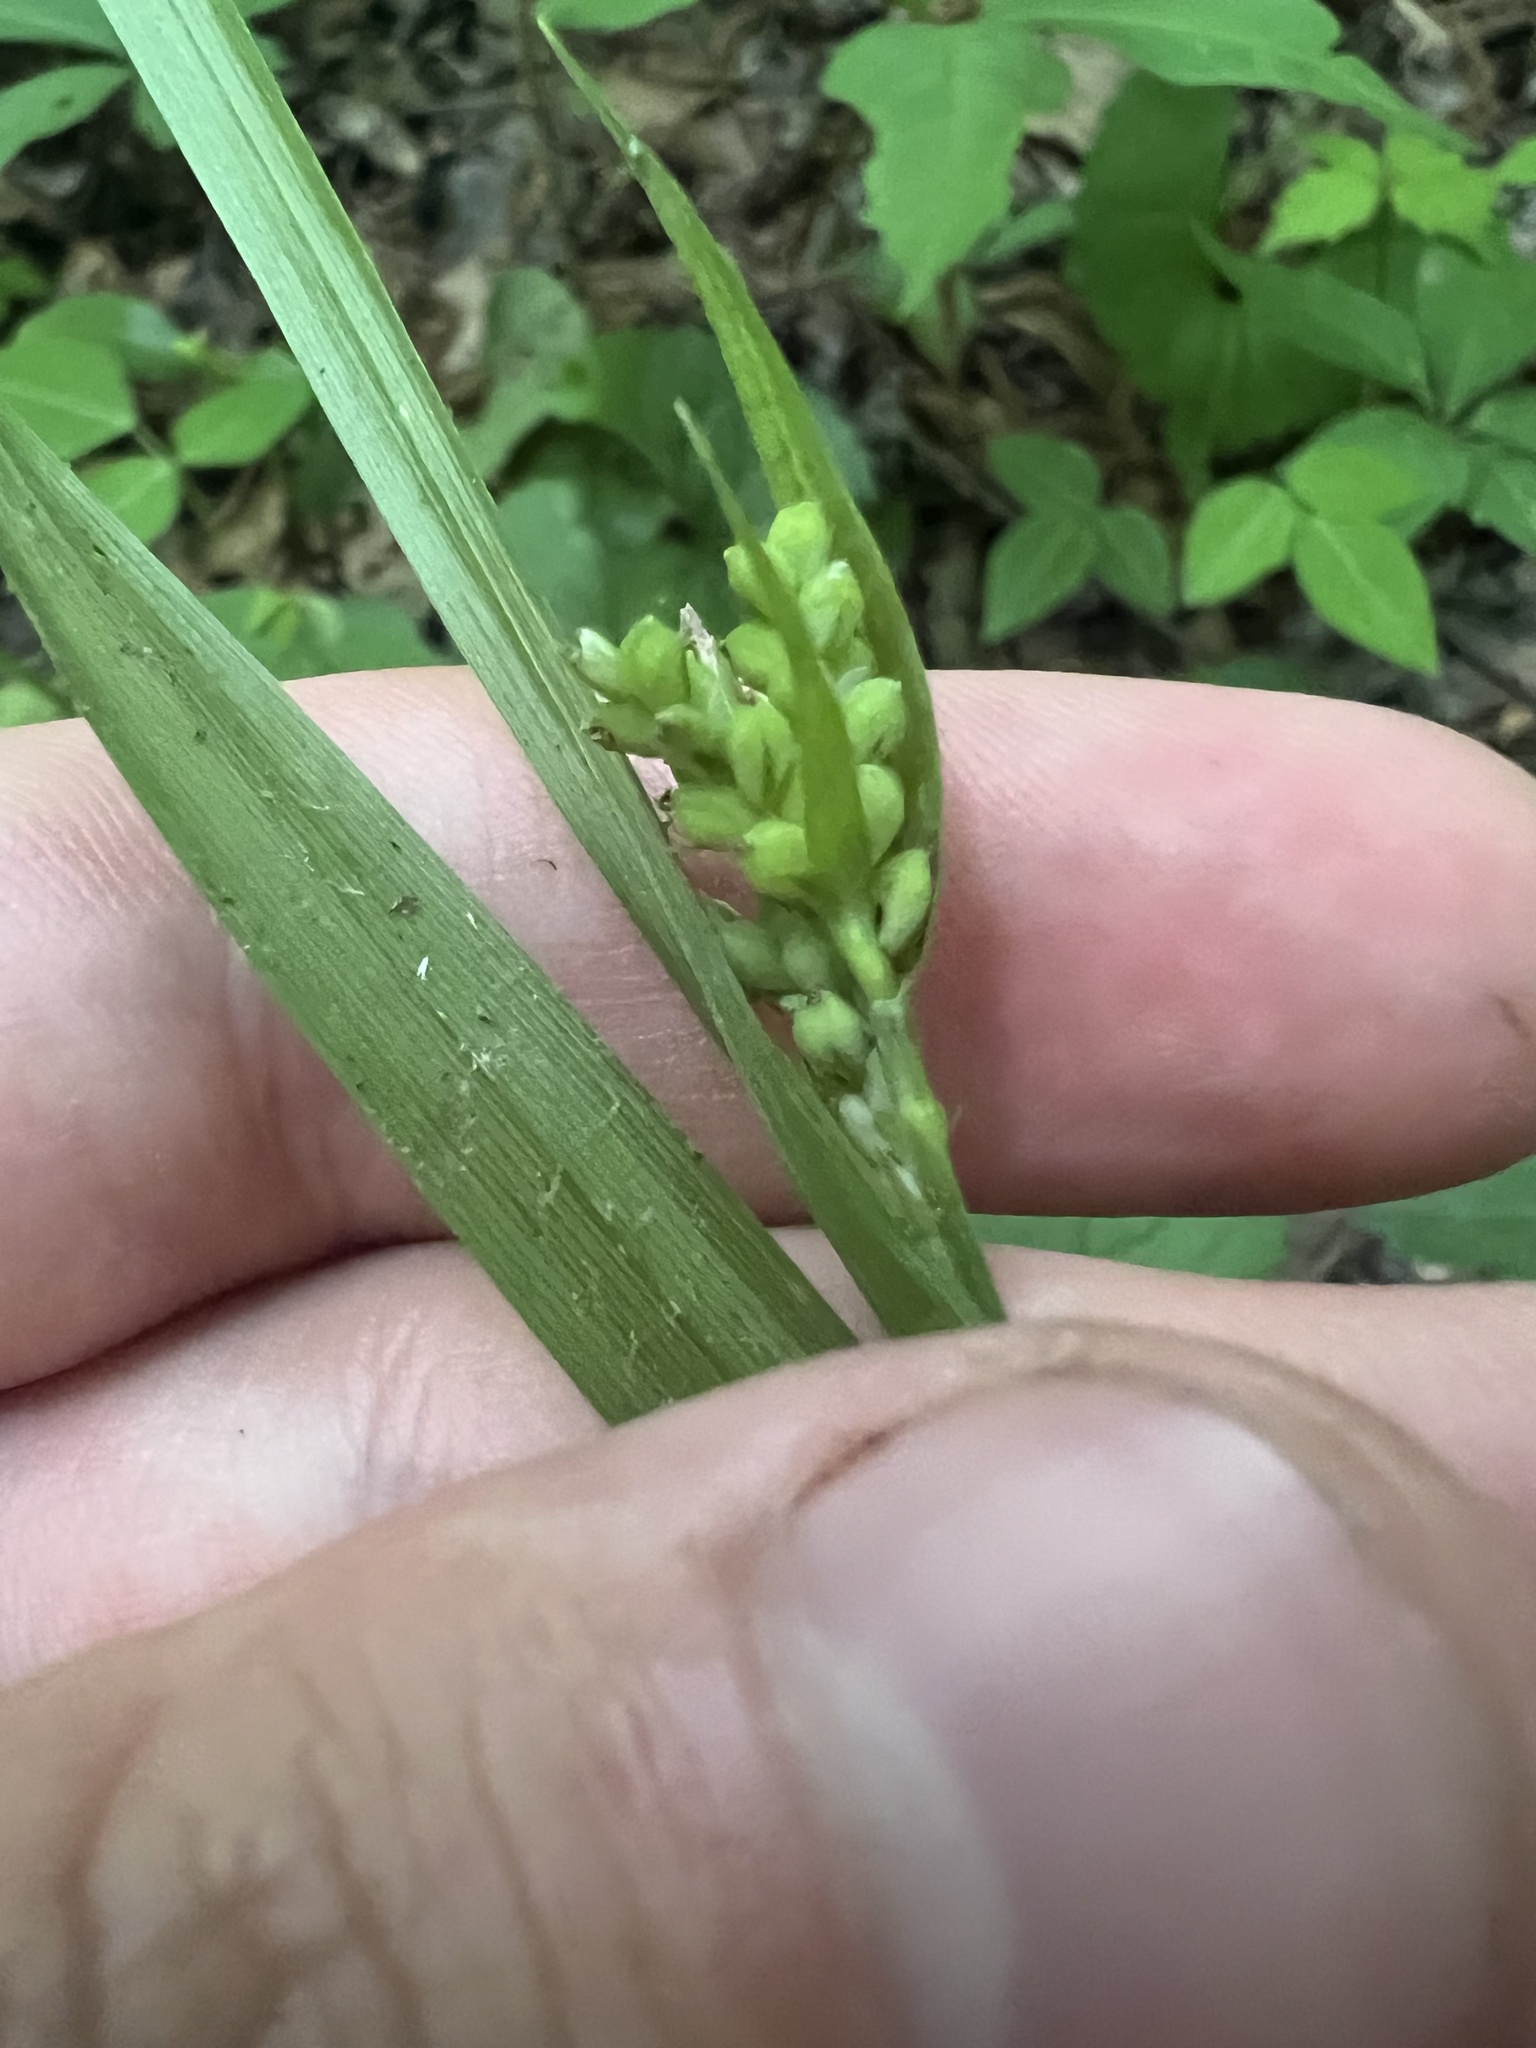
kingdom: Plantae
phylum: Tracheophyta
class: Liliopsida
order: Poales
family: Cyperaceae
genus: Carex
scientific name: Carex kraliana
